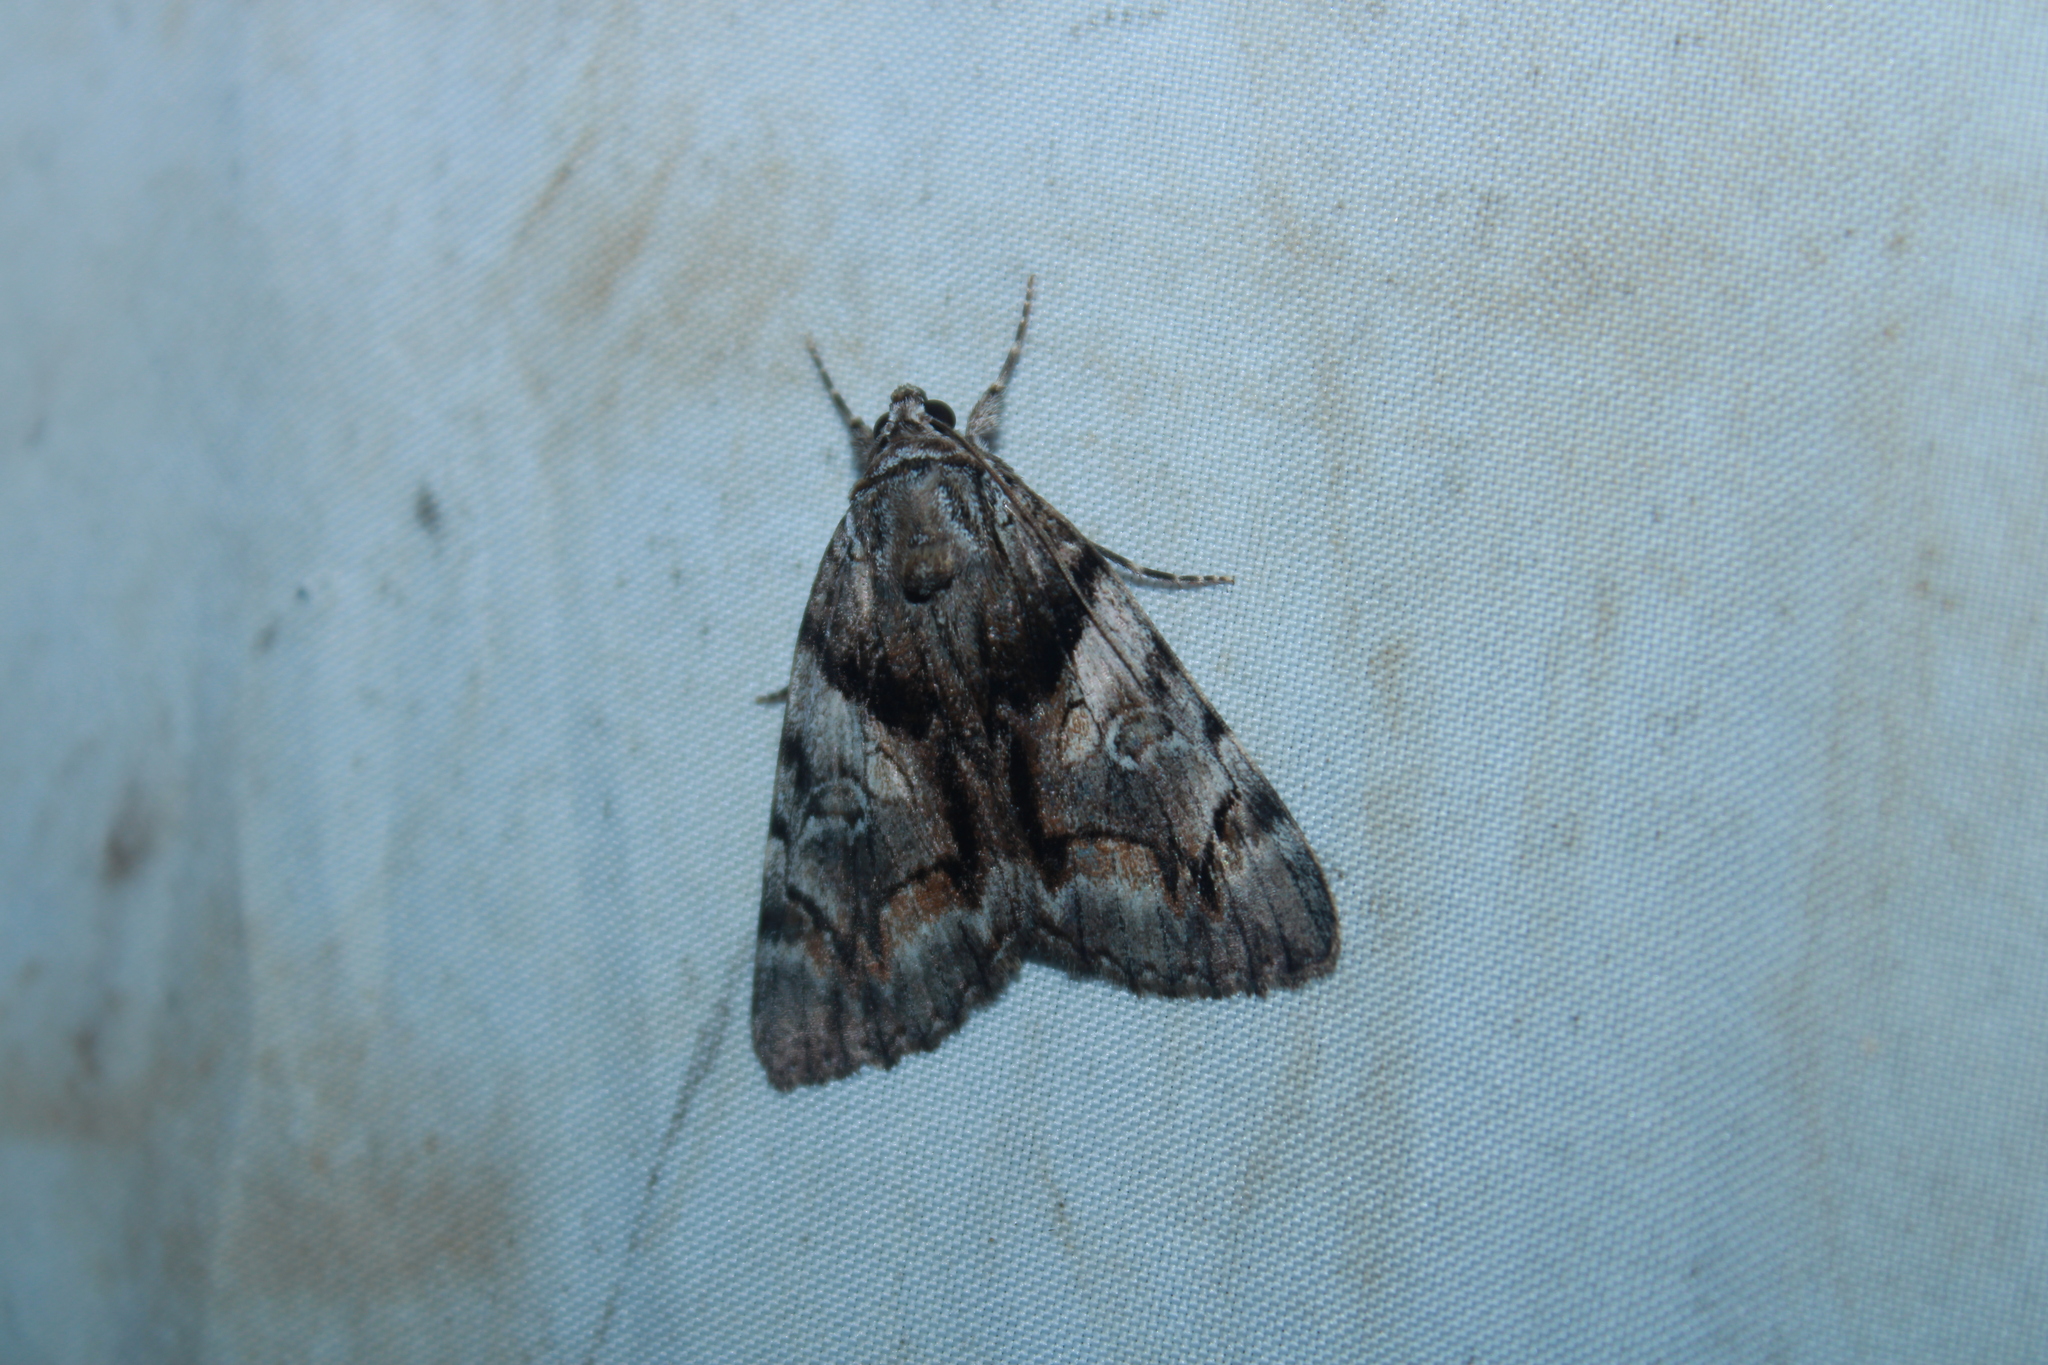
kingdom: Animalia
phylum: Arthropoda
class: Insecta
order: Lepidoptera
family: Erebidae
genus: Catocala
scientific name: Catocala blandula
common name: Charming underwing
